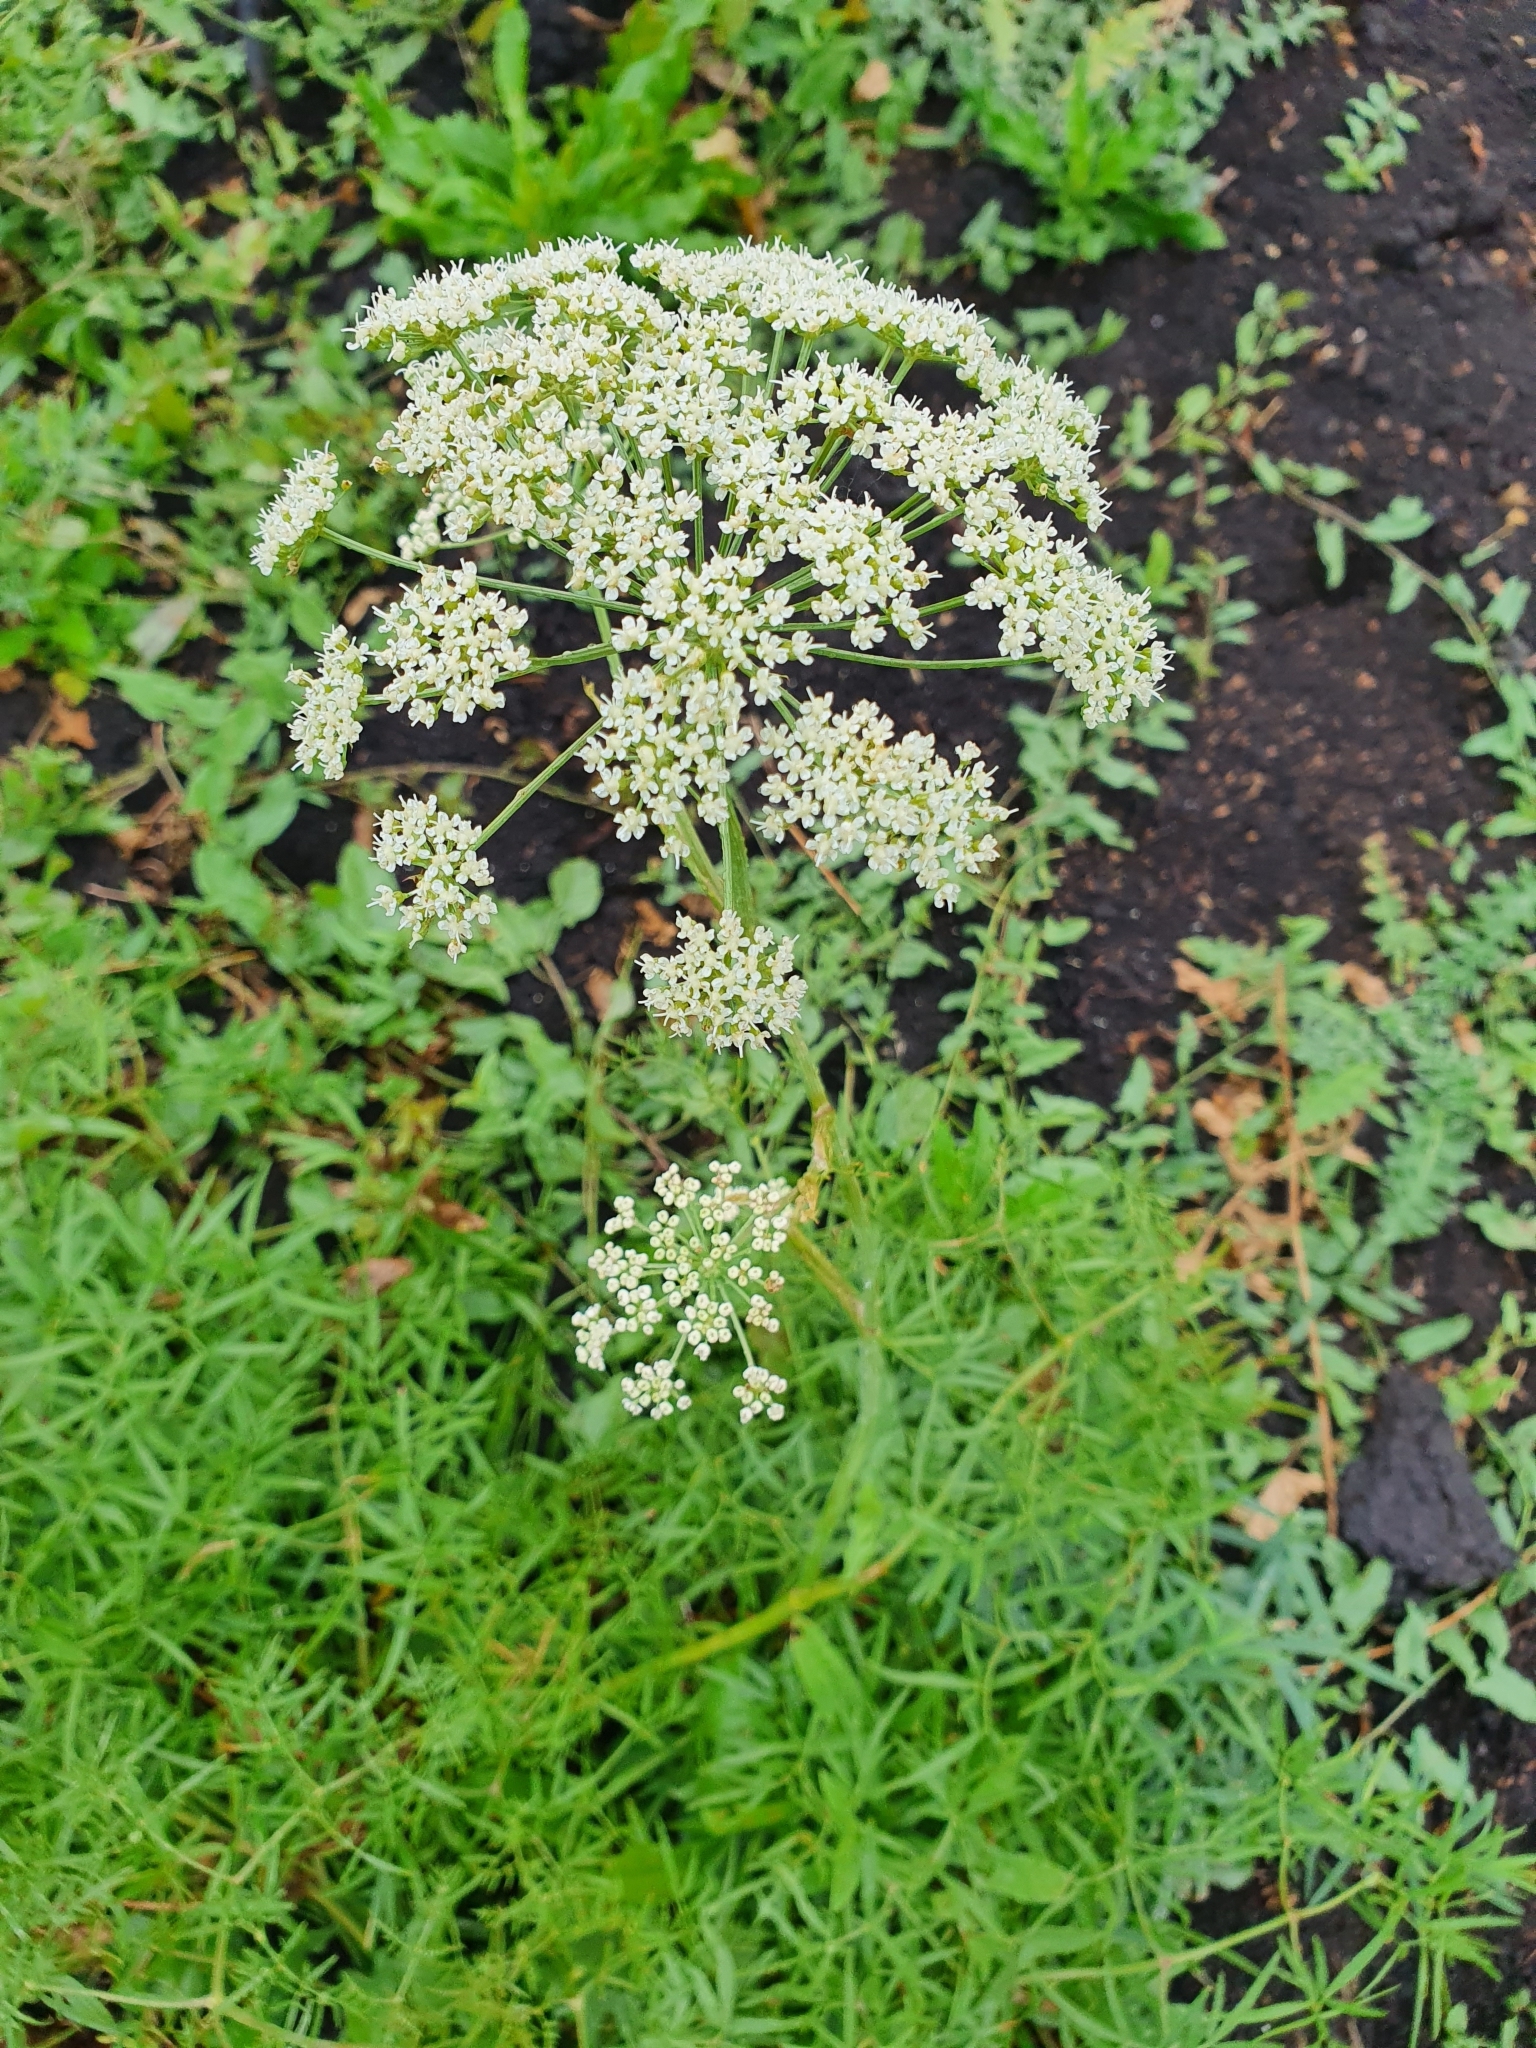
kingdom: Plantae
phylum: Tracheophyta
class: Magnoliopsida
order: Apiales
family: Apiaceae
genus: Cenolophium
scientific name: Cenolophium fischeri
